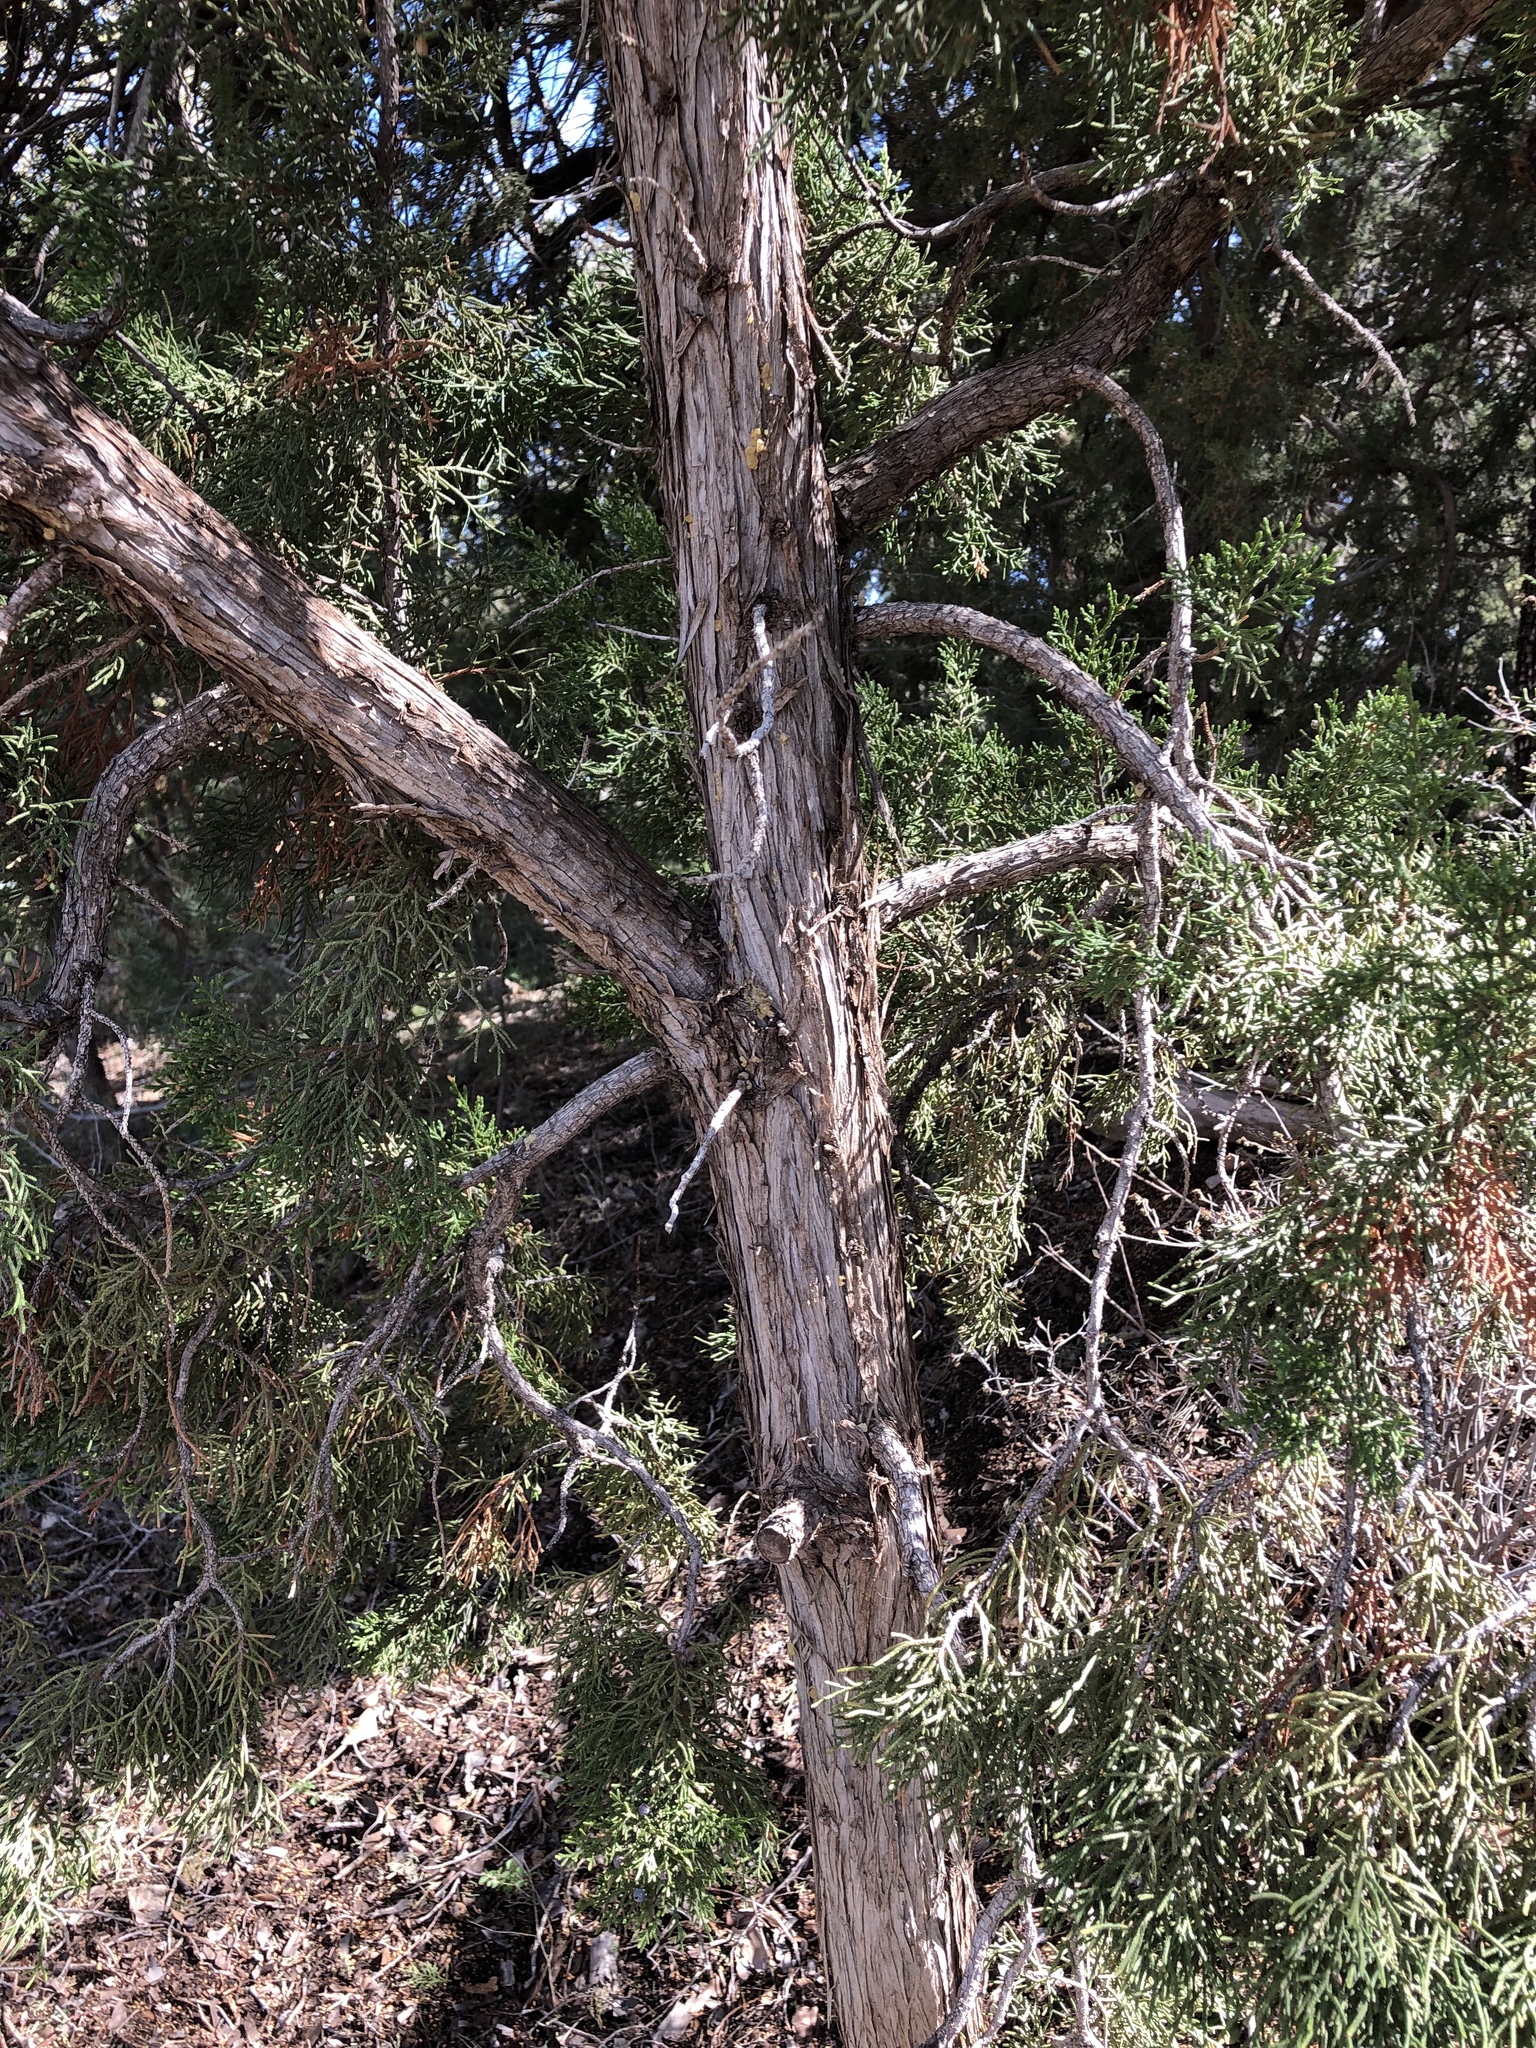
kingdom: Plantae
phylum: Tracheophyta
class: Pinopsida
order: Pinales
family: Cupressaceae
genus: Juniperus
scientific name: Juniperus monosperma
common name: One-seed juniper
